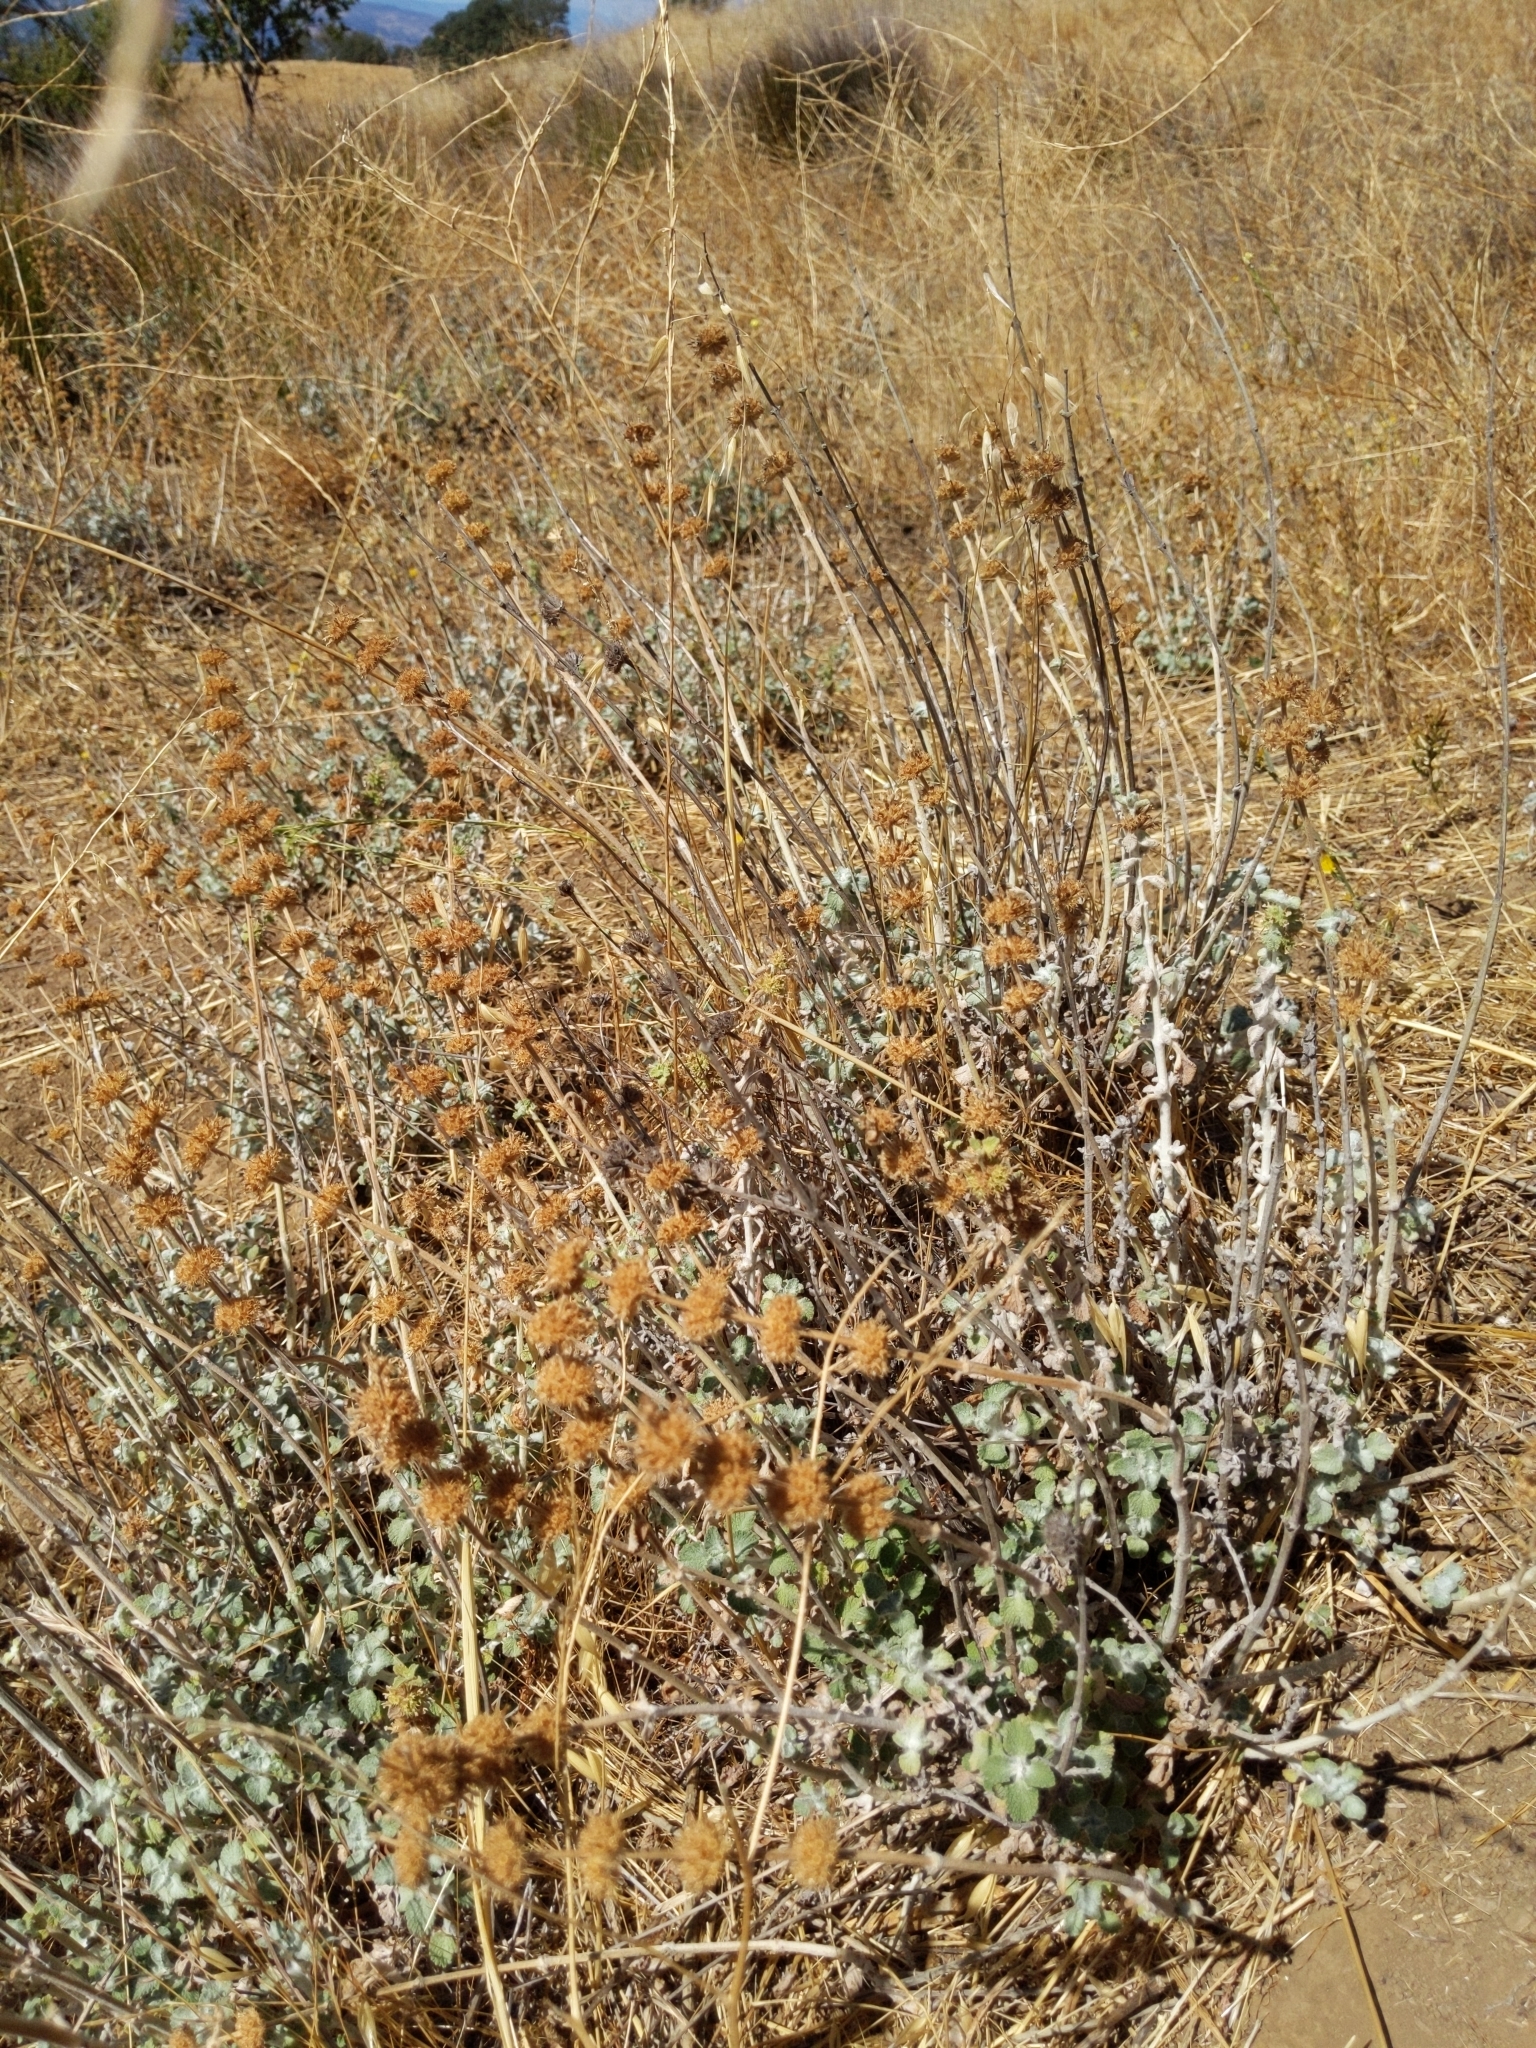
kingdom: Plantae
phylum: Tracheophyta
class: Magnoliopsida
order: Lamiales
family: Lamiaceae
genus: Marrubium
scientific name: Marrubium vulgare
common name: Horehound
